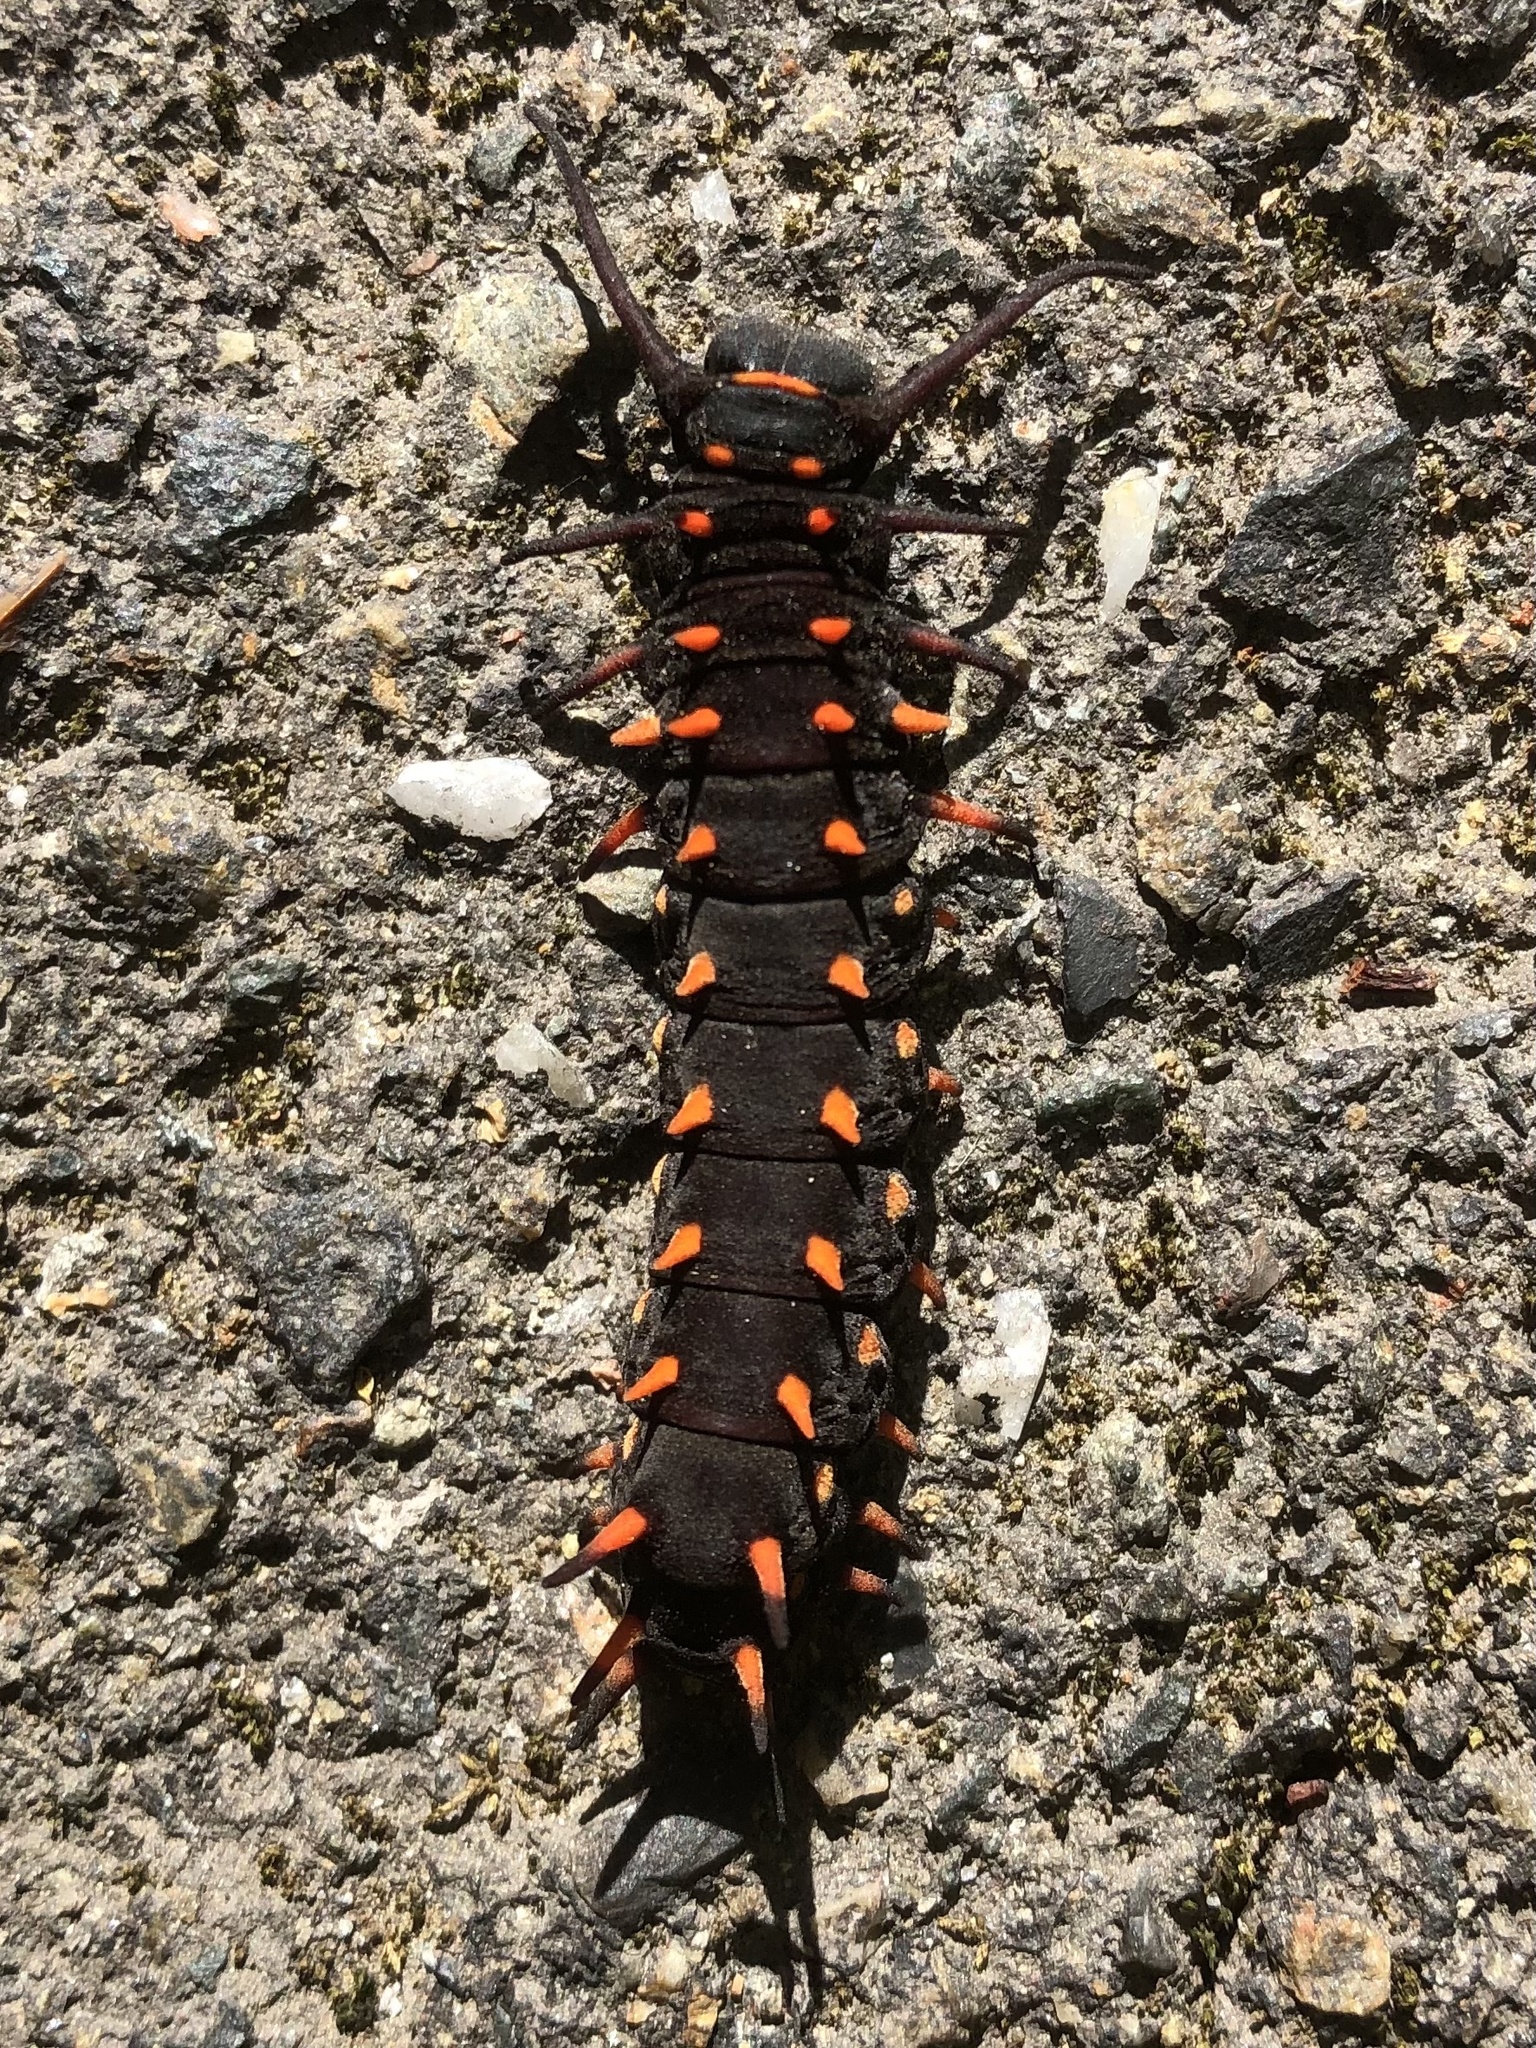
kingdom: Animalia
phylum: Arthropoda
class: Insecta
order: Lepidoptera
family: Papilionidae
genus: Battus
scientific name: Battus philenor
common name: Pipevine swallowtail
